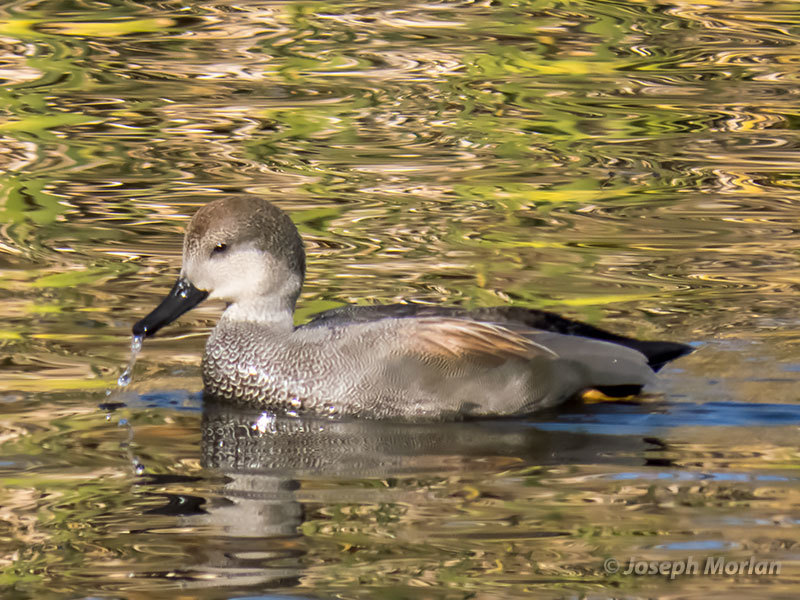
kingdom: Animalia
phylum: Chordata
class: Aves
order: Anseriformes
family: Anatidae
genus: Mareca
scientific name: Mareca strepera
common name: Gadwall
